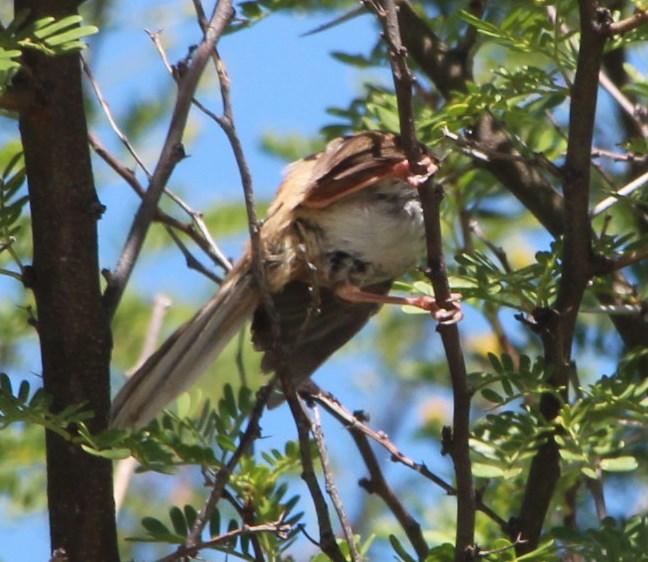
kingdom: Animalia
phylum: Chordata
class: Aves
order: Passeriformes
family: Cisticolidae
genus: Prinia
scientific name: Prinia maculosa
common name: Karoo prinia
